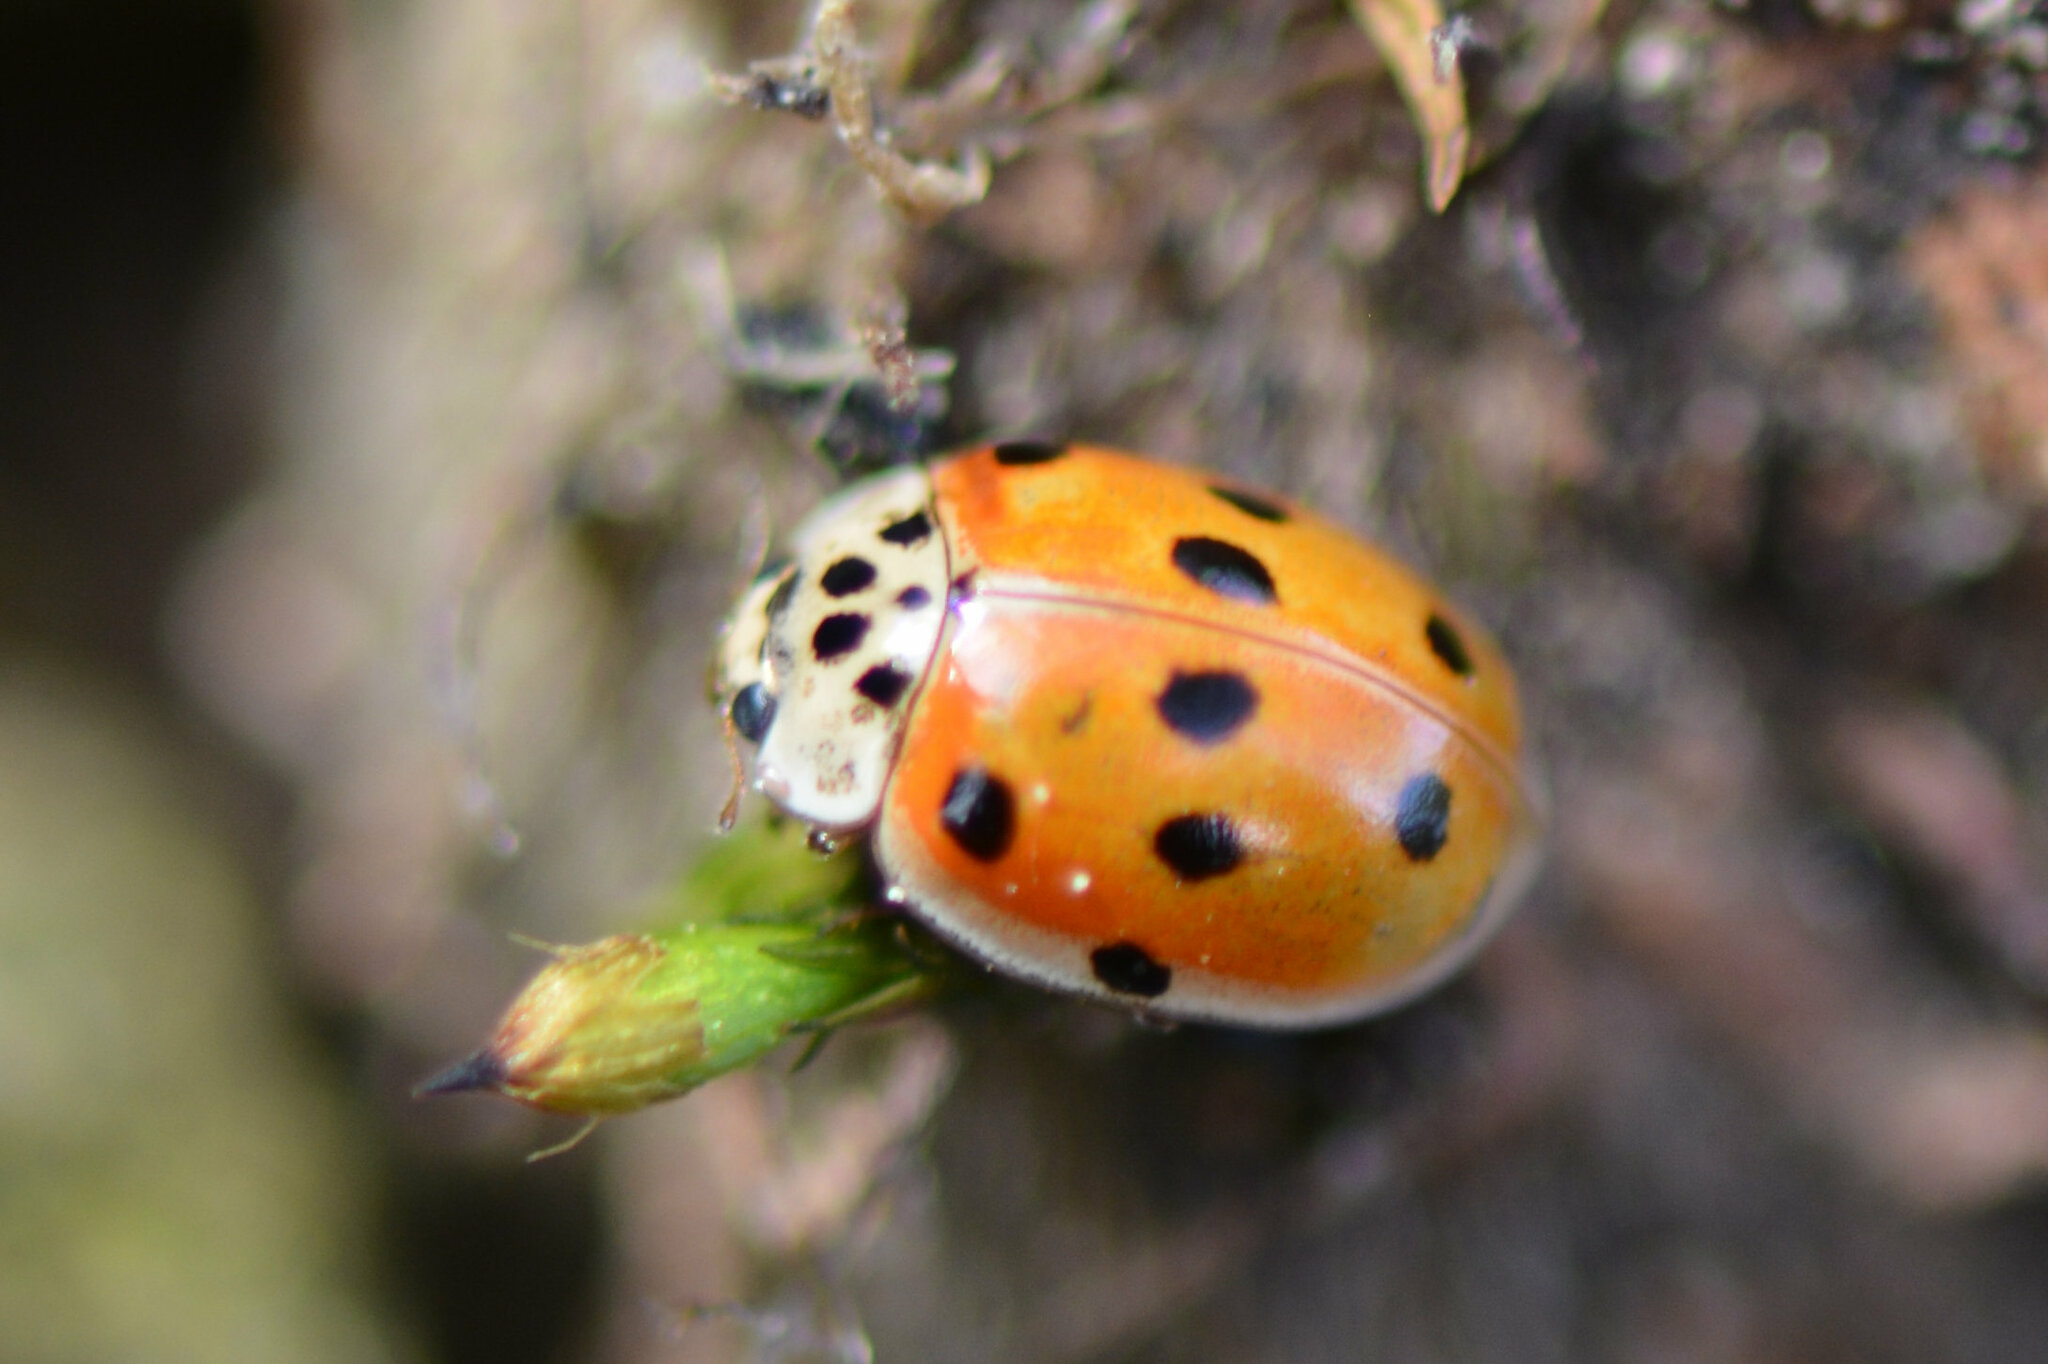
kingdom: Animalia
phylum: Arthropoda
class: Insecta
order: Coleoptera
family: Coccinellidae
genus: Adalia
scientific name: Adalia decempunctata
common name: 10-spot ladybird
